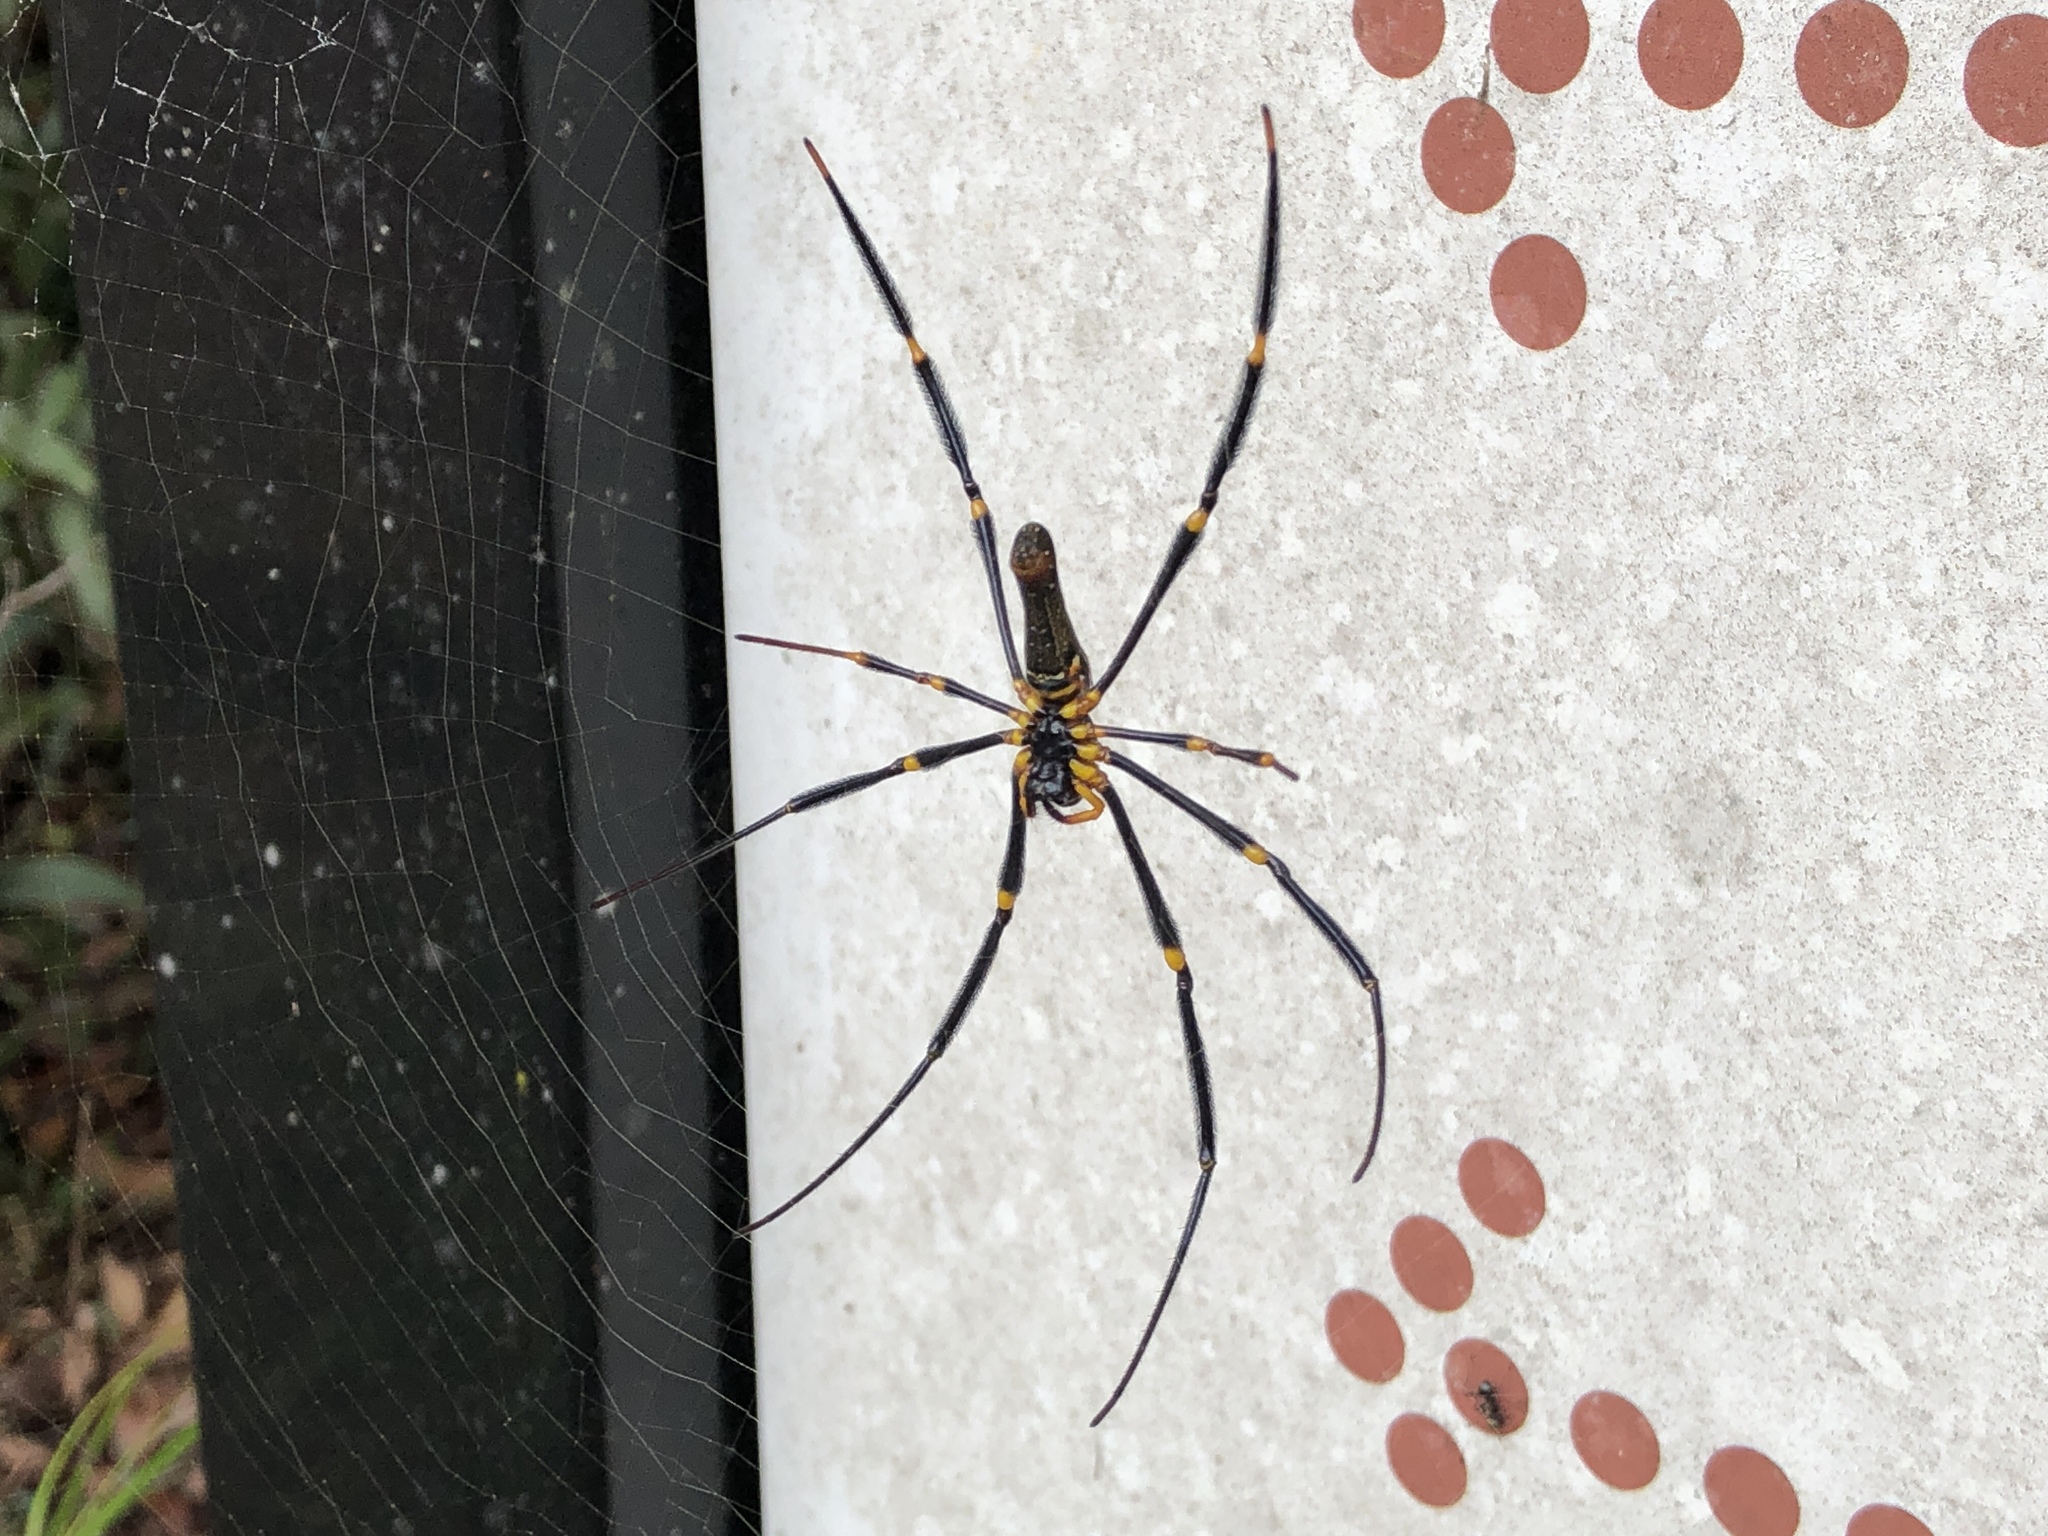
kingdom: Animalia
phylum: Arthropoda
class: Arachnida
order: Araneae
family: Araneidae
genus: Nephila
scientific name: Nephila pilipes
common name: Giant golden orb weaver
